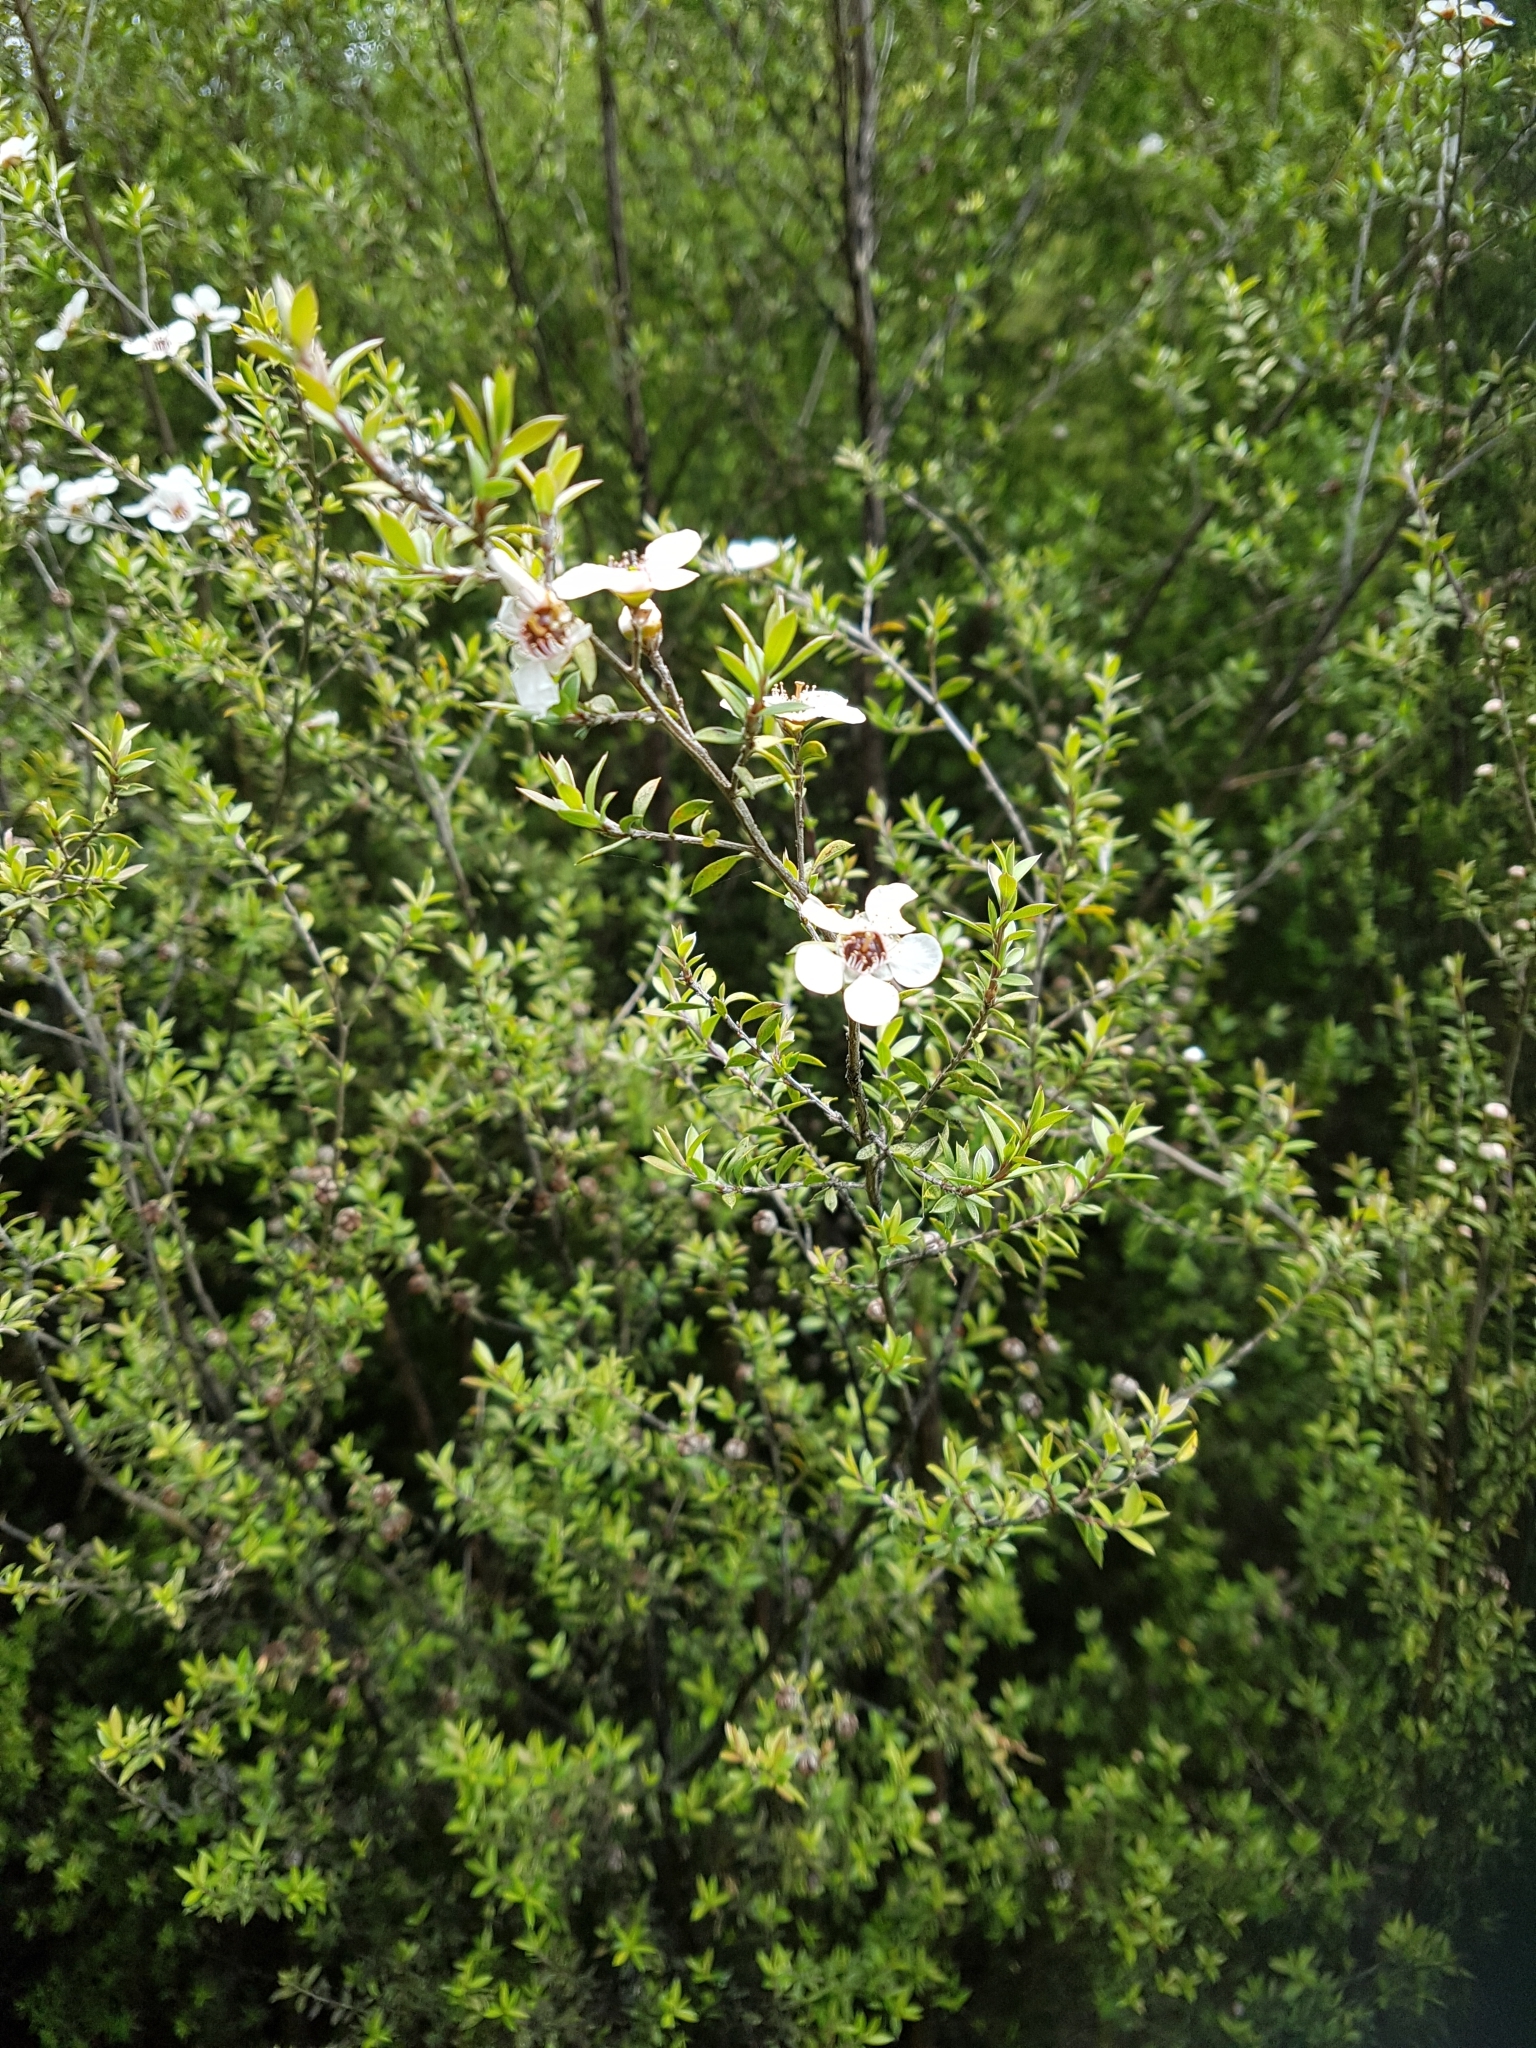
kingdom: Plantae
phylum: Tracheophyta
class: Magnoliopsida
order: Myrtales
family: Myrtaceae
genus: Leptospermum
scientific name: Leptospermum scoparium
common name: Broom tea-tree
